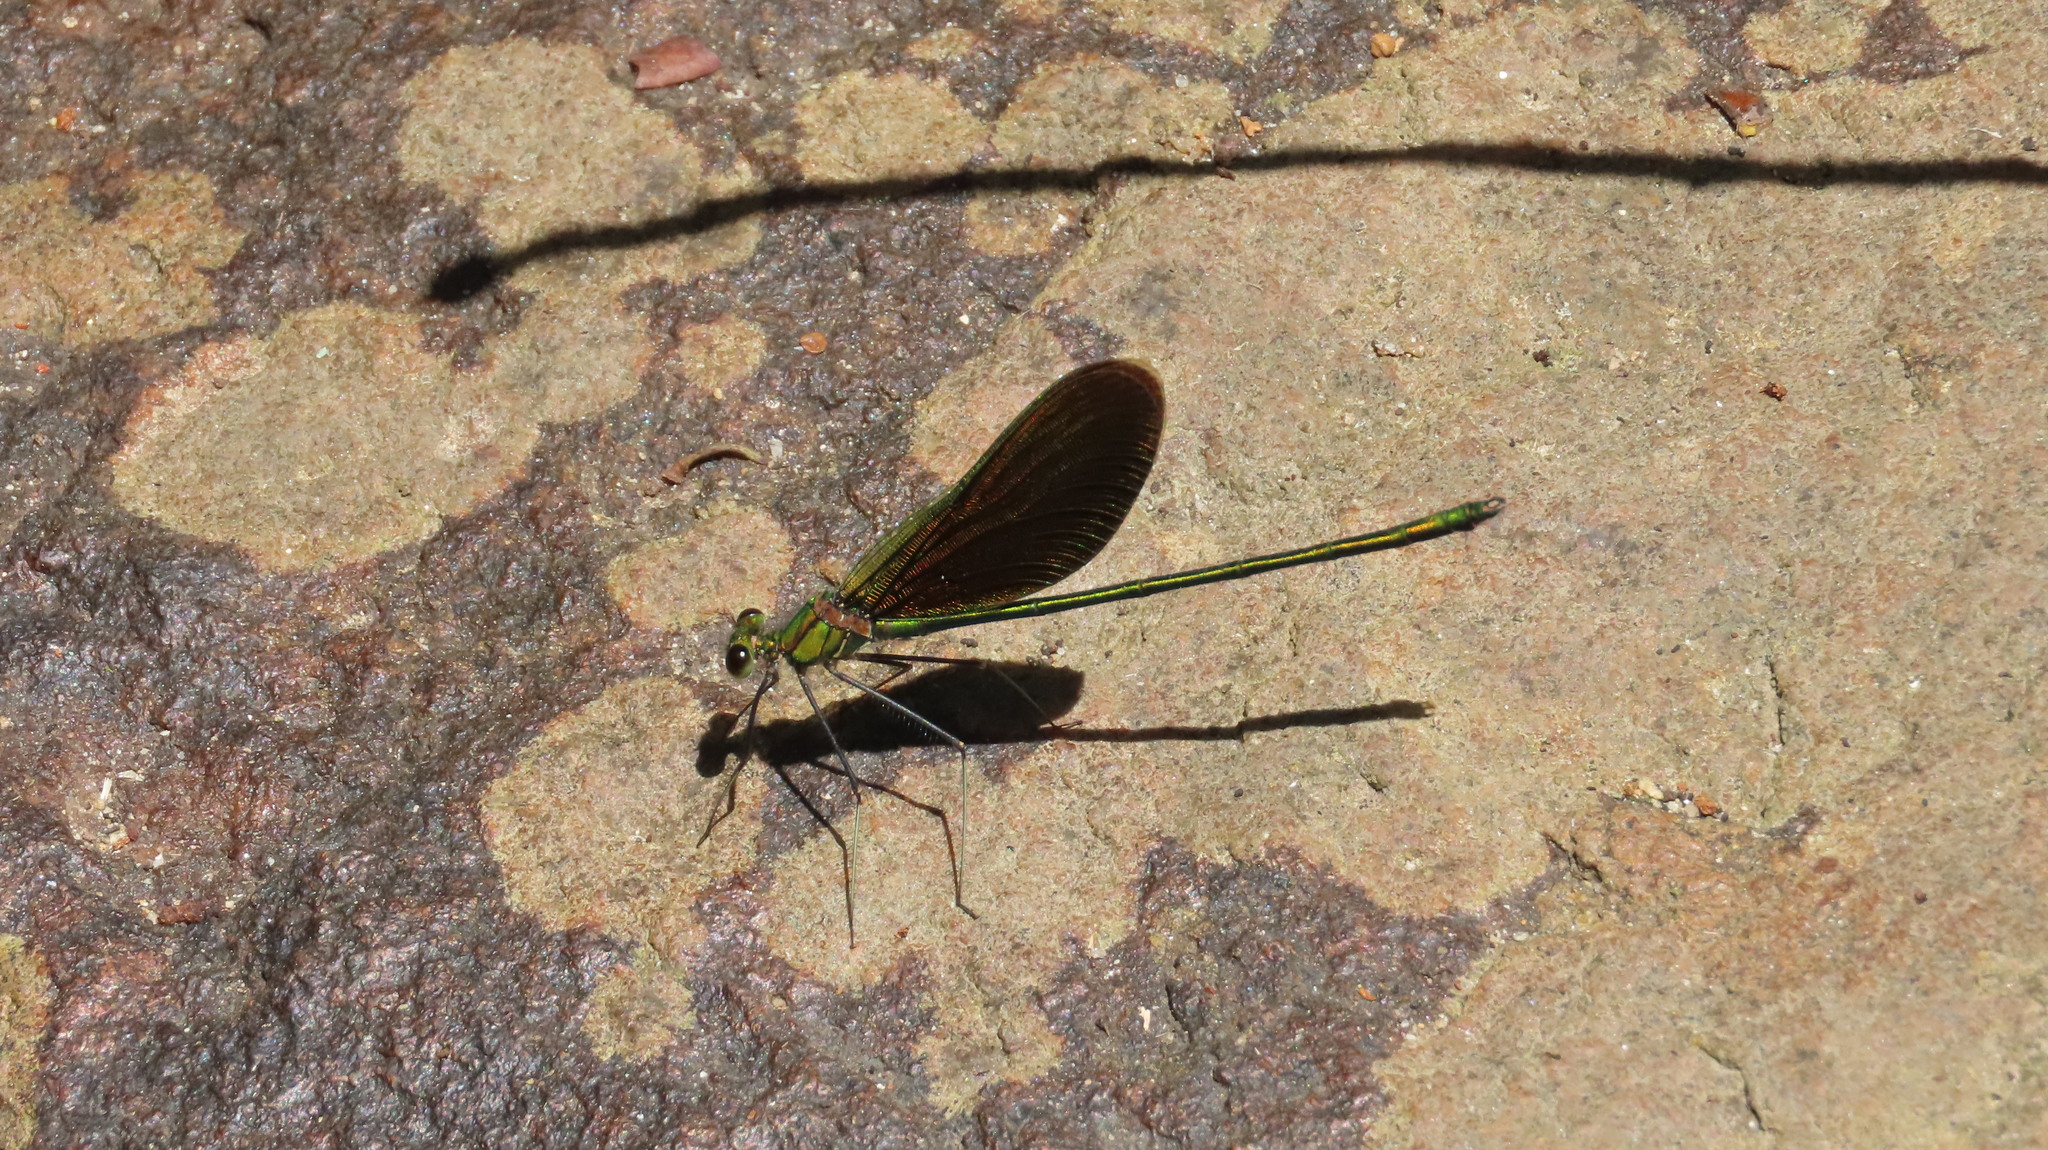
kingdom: Animalia
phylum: Arthropoda
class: Insecta
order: Odonata
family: Calopterygidae
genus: Neurobasis
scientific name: Neurobasis chinensis
